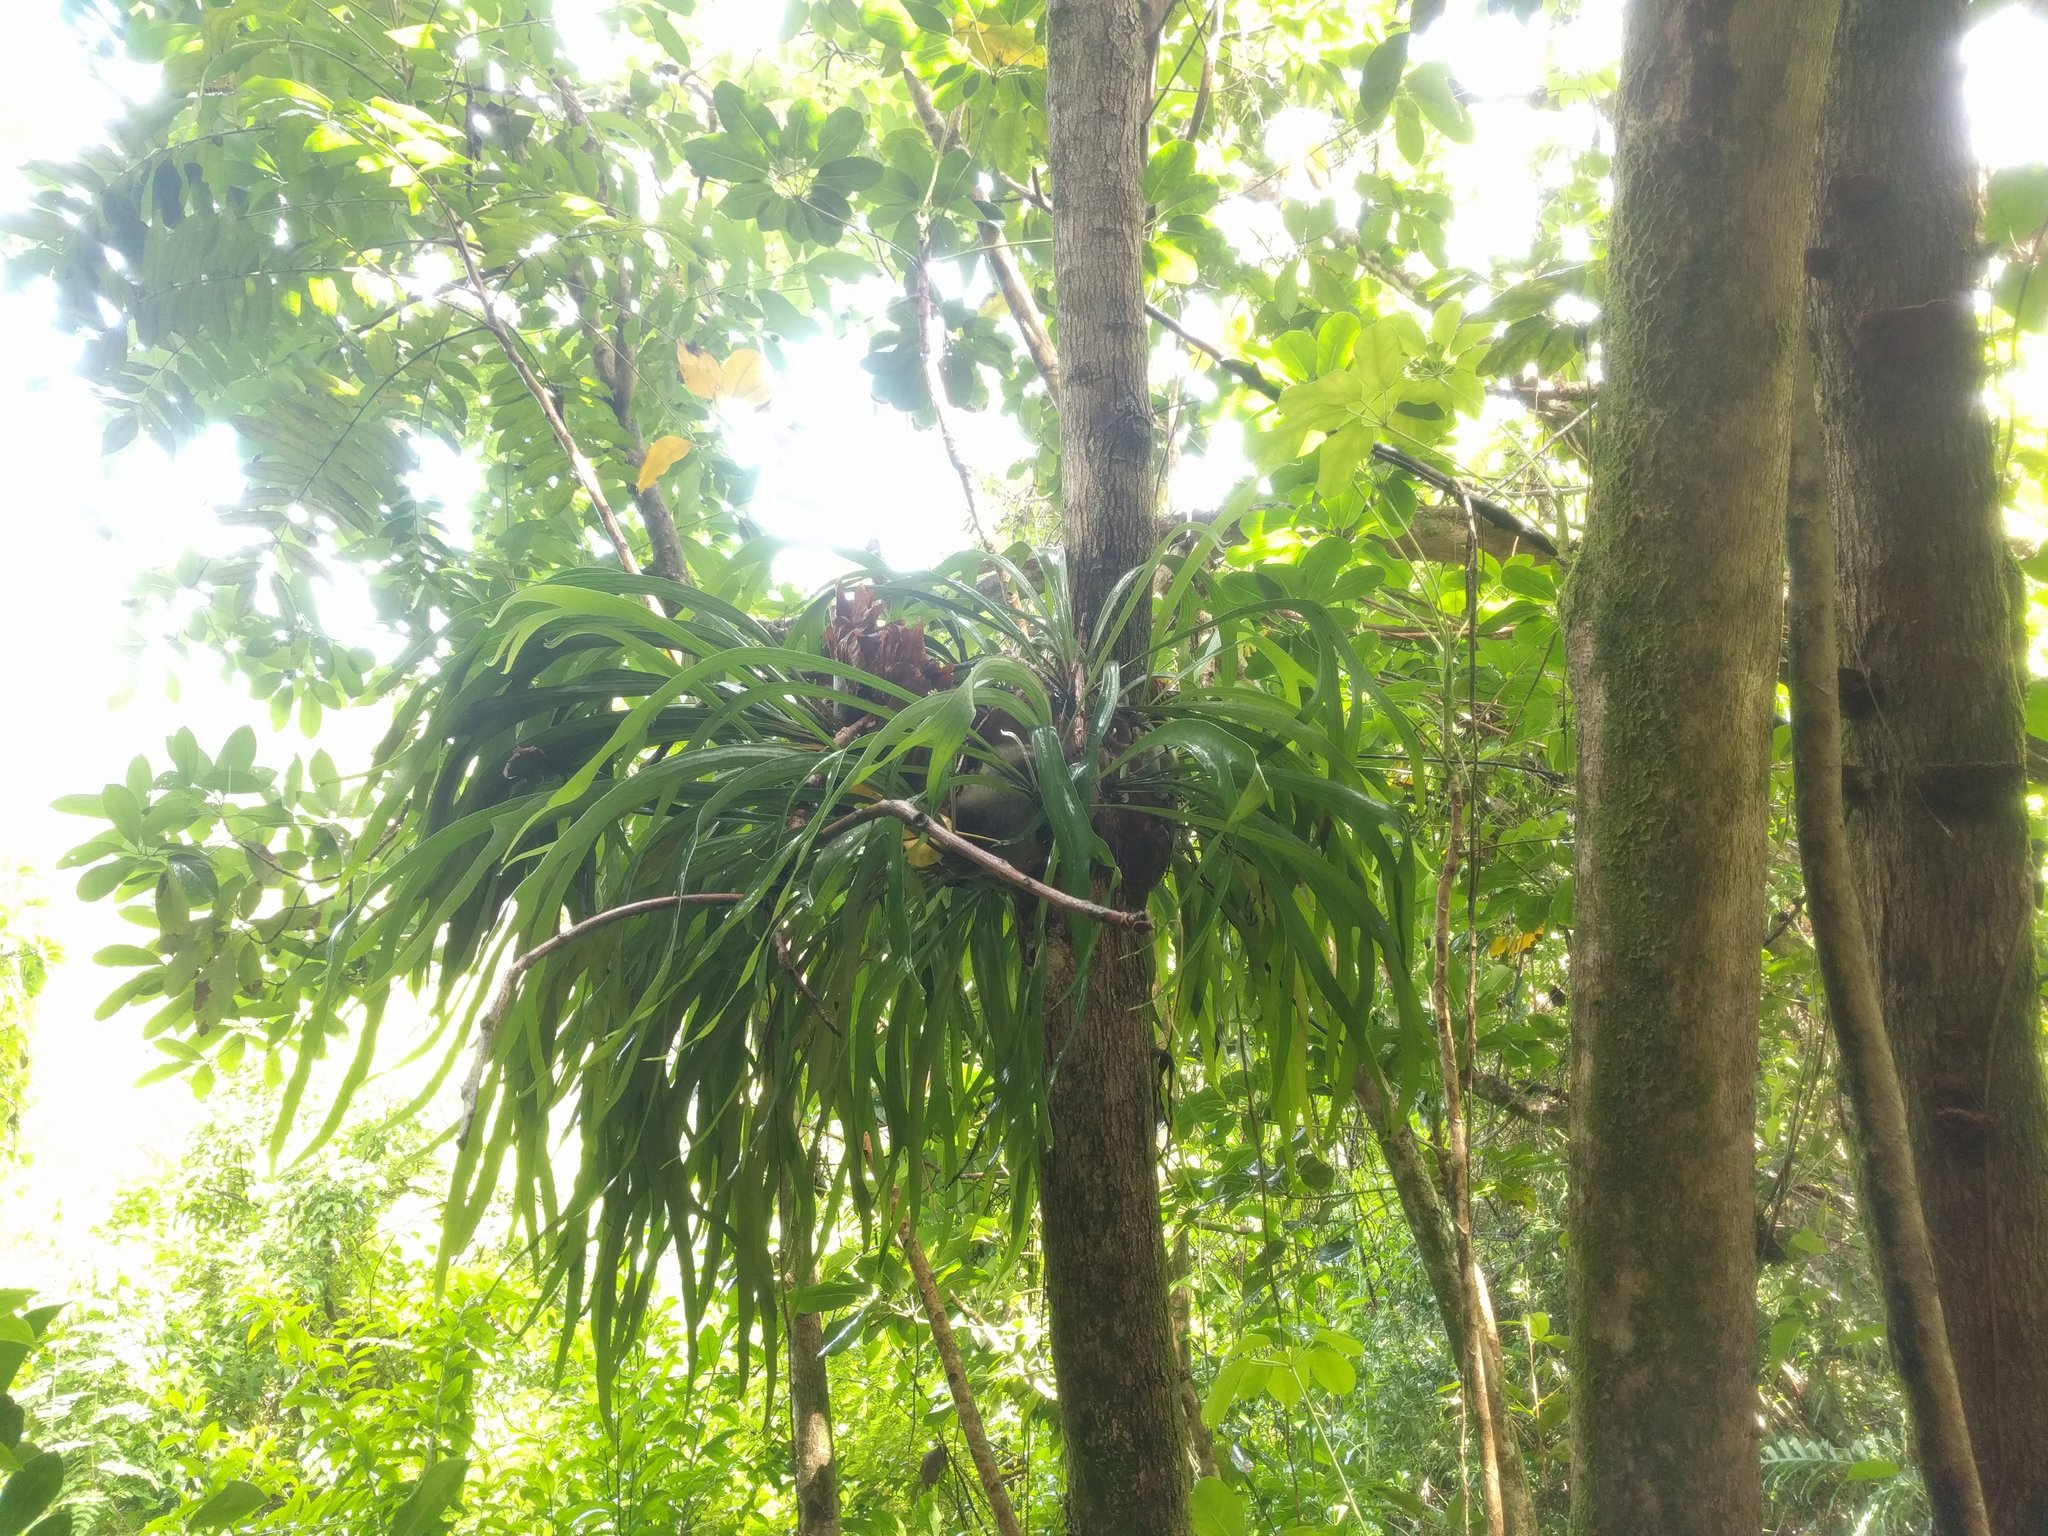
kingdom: Plantae
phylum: Tracheophyta
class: Polypodiopsida
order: Polypodiales
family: Polypodiaceae
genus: Platycerium
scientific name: Platycerium bifurcatum
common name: Elkhorn fern
